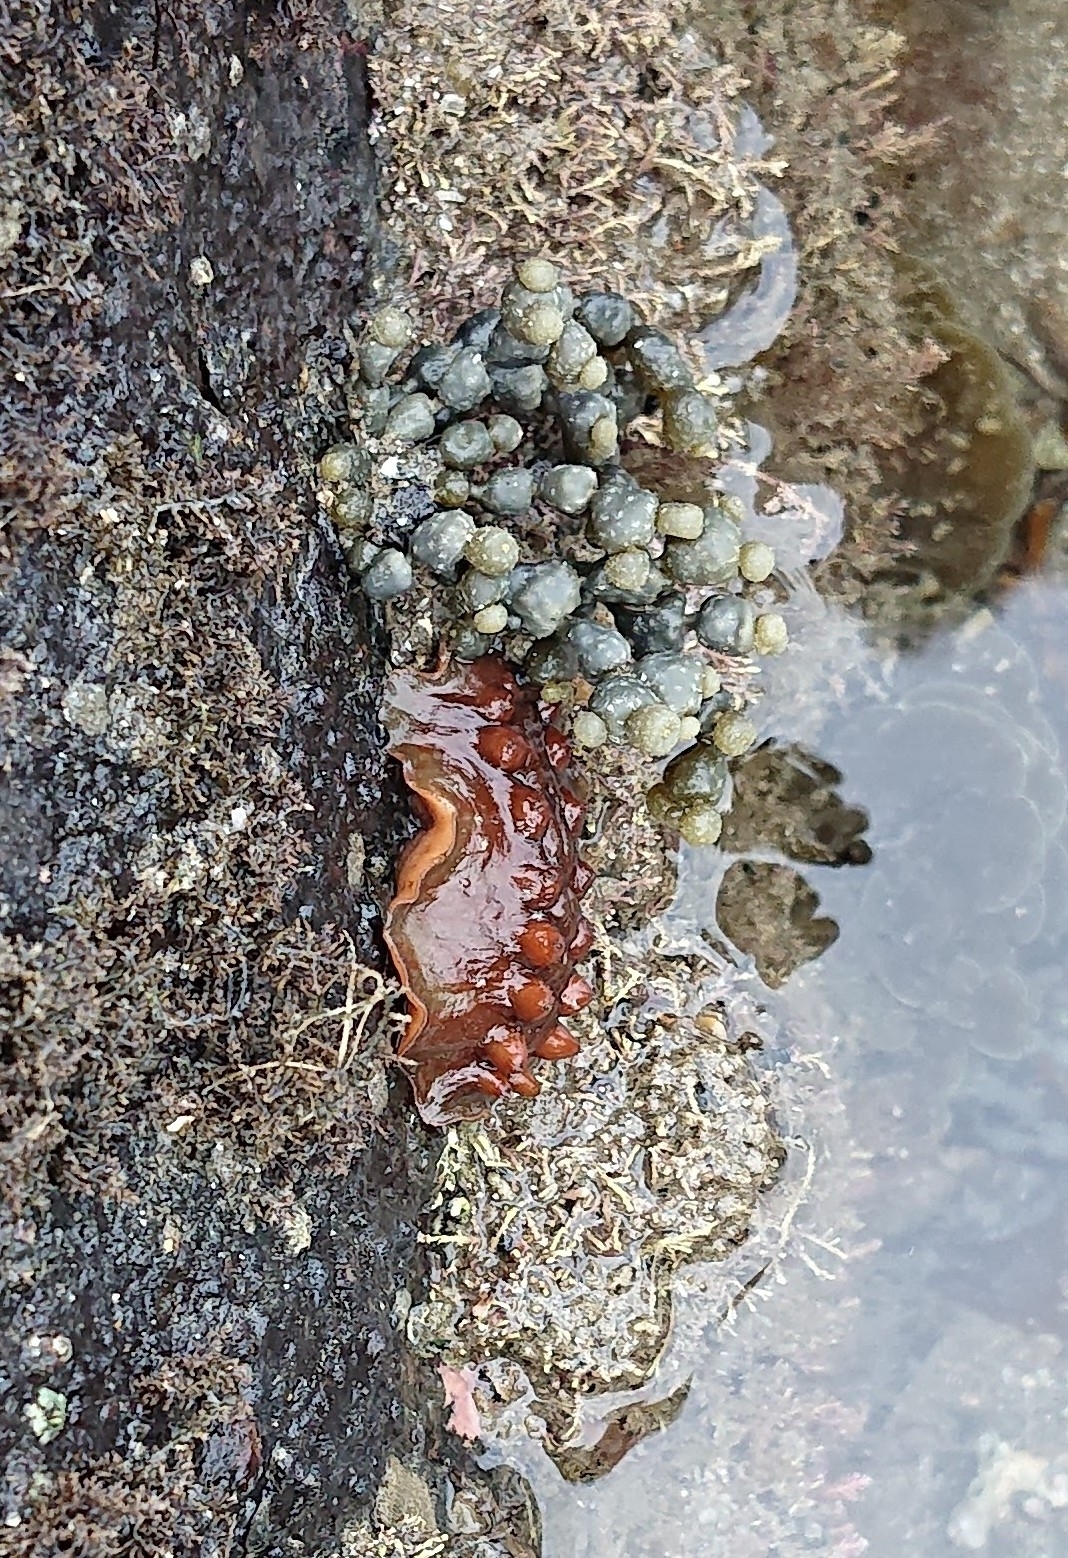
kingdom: Animalia
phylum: Mollusca
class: Polyplacophora
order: Chitonida
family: Acanthochitonidae
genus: Cryptoconchus
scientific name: Cryptoconchus porosus
